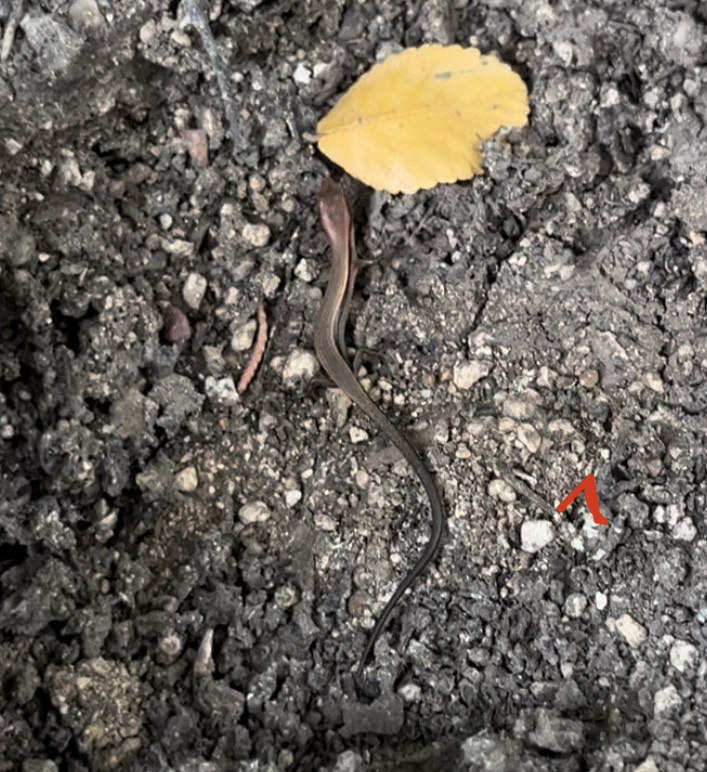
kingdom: Animalia
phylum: Chordata
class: Squamata
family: Scincidae
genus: Scincella
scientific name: Scincella lateralis
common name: Ground skink
